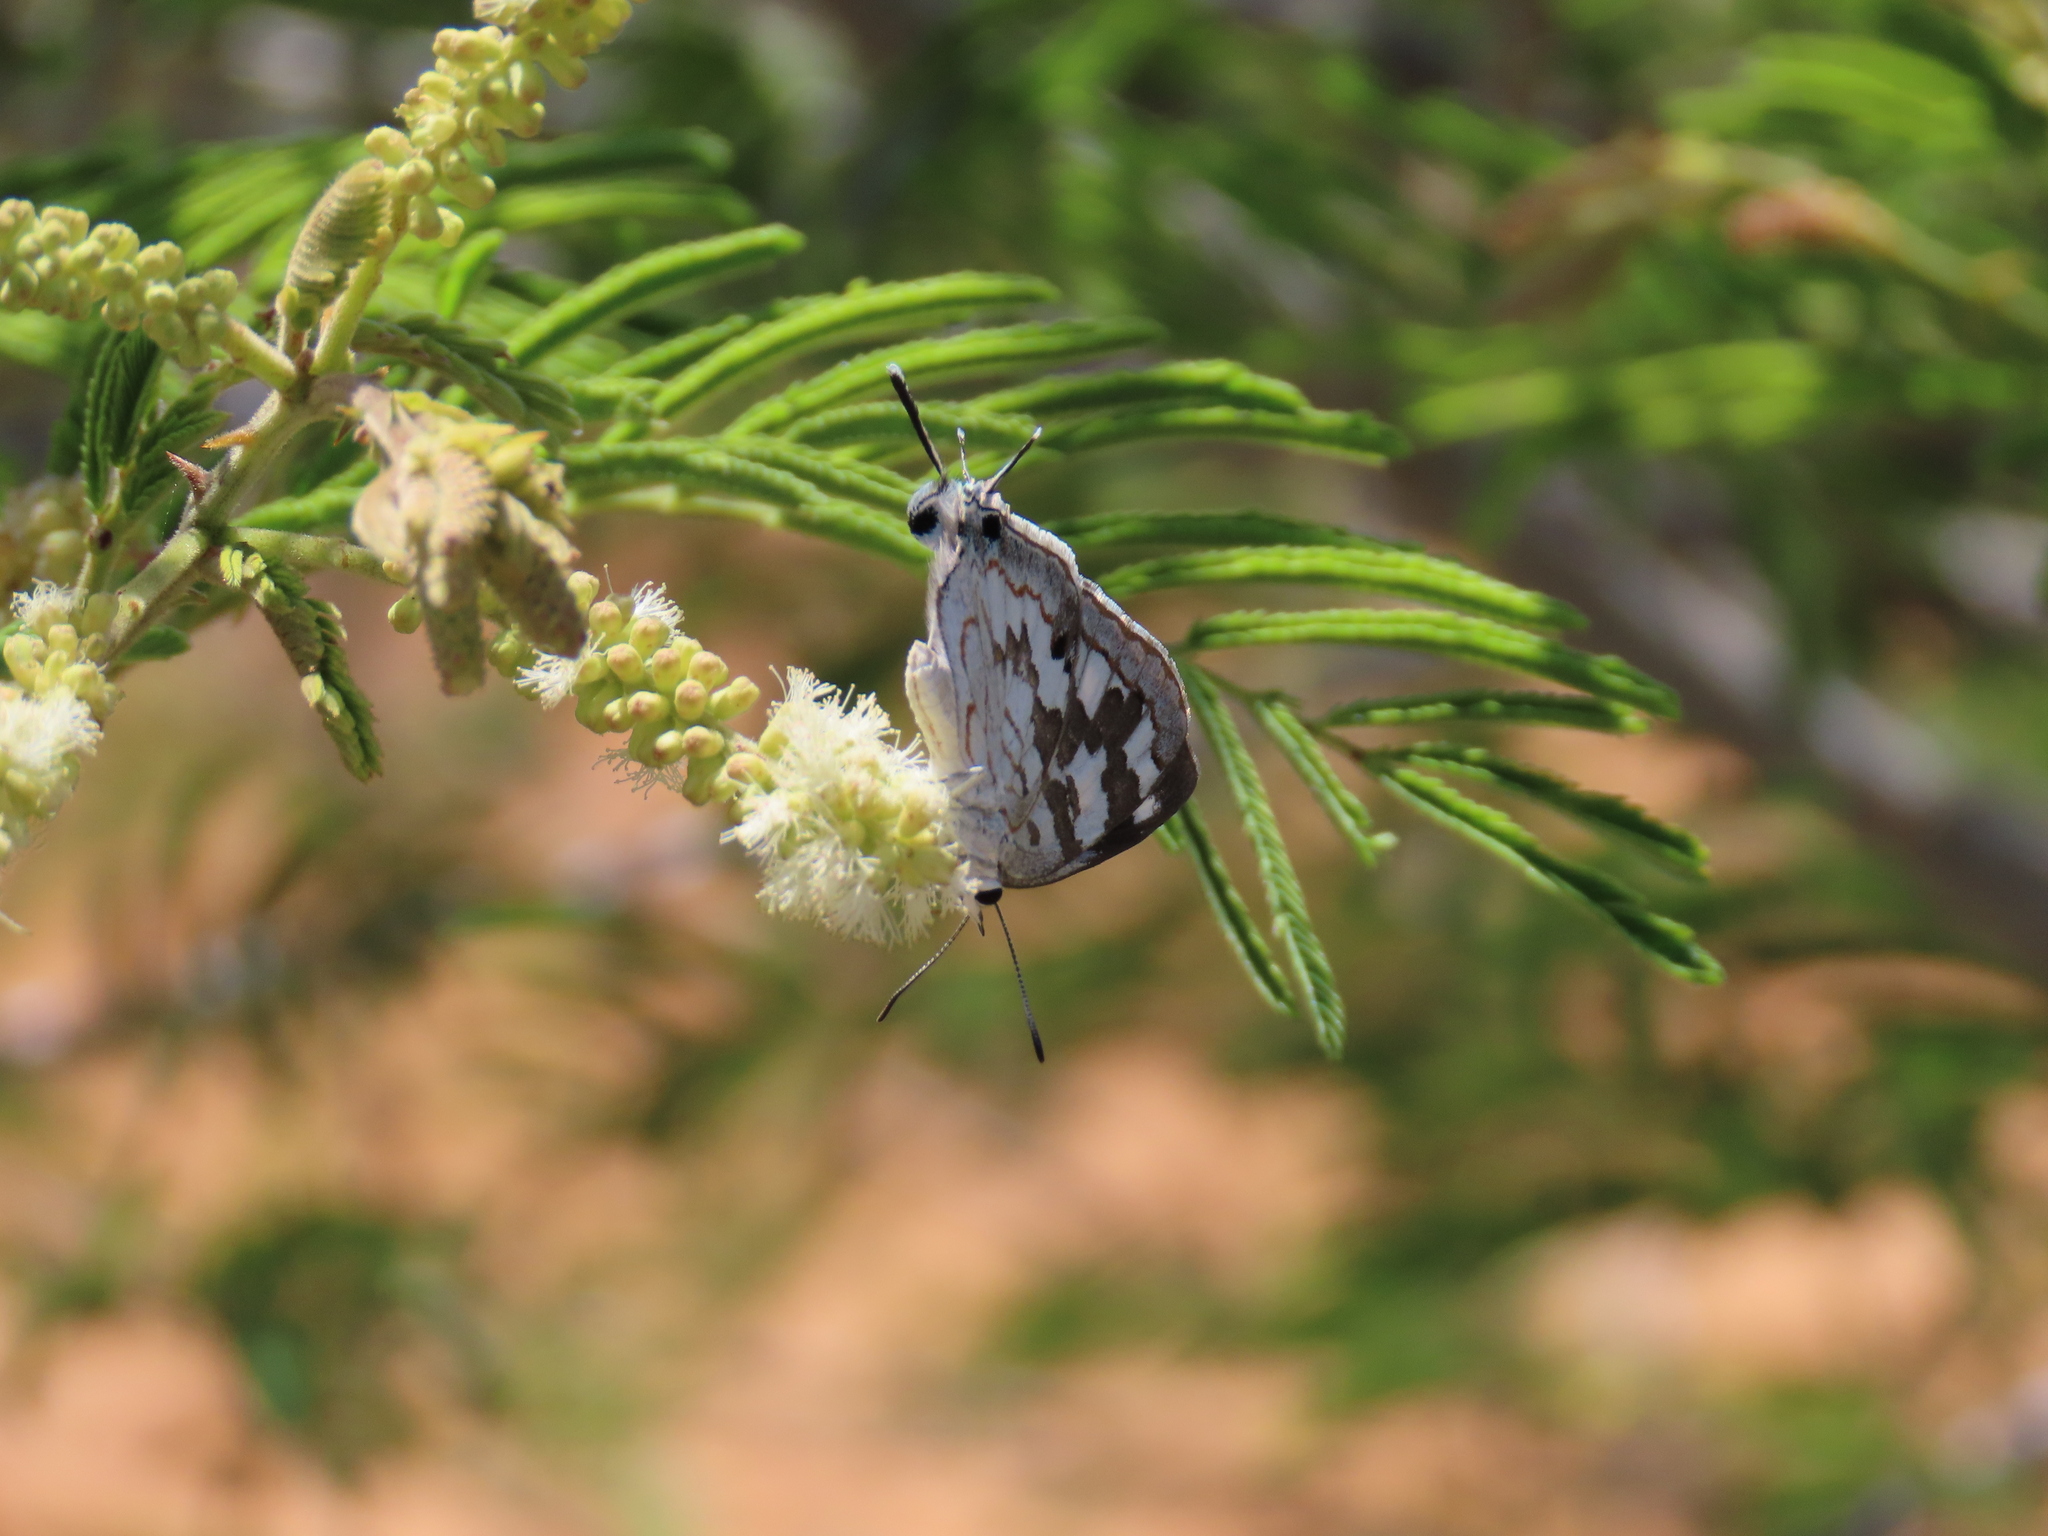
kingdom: Animalia
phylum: Arthropoda
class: Insecta
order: Lepidoptera
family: Lycaenidae
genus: Stugeta
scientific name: Stugeta bowkeri
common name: Bowker's marbled sapphire
